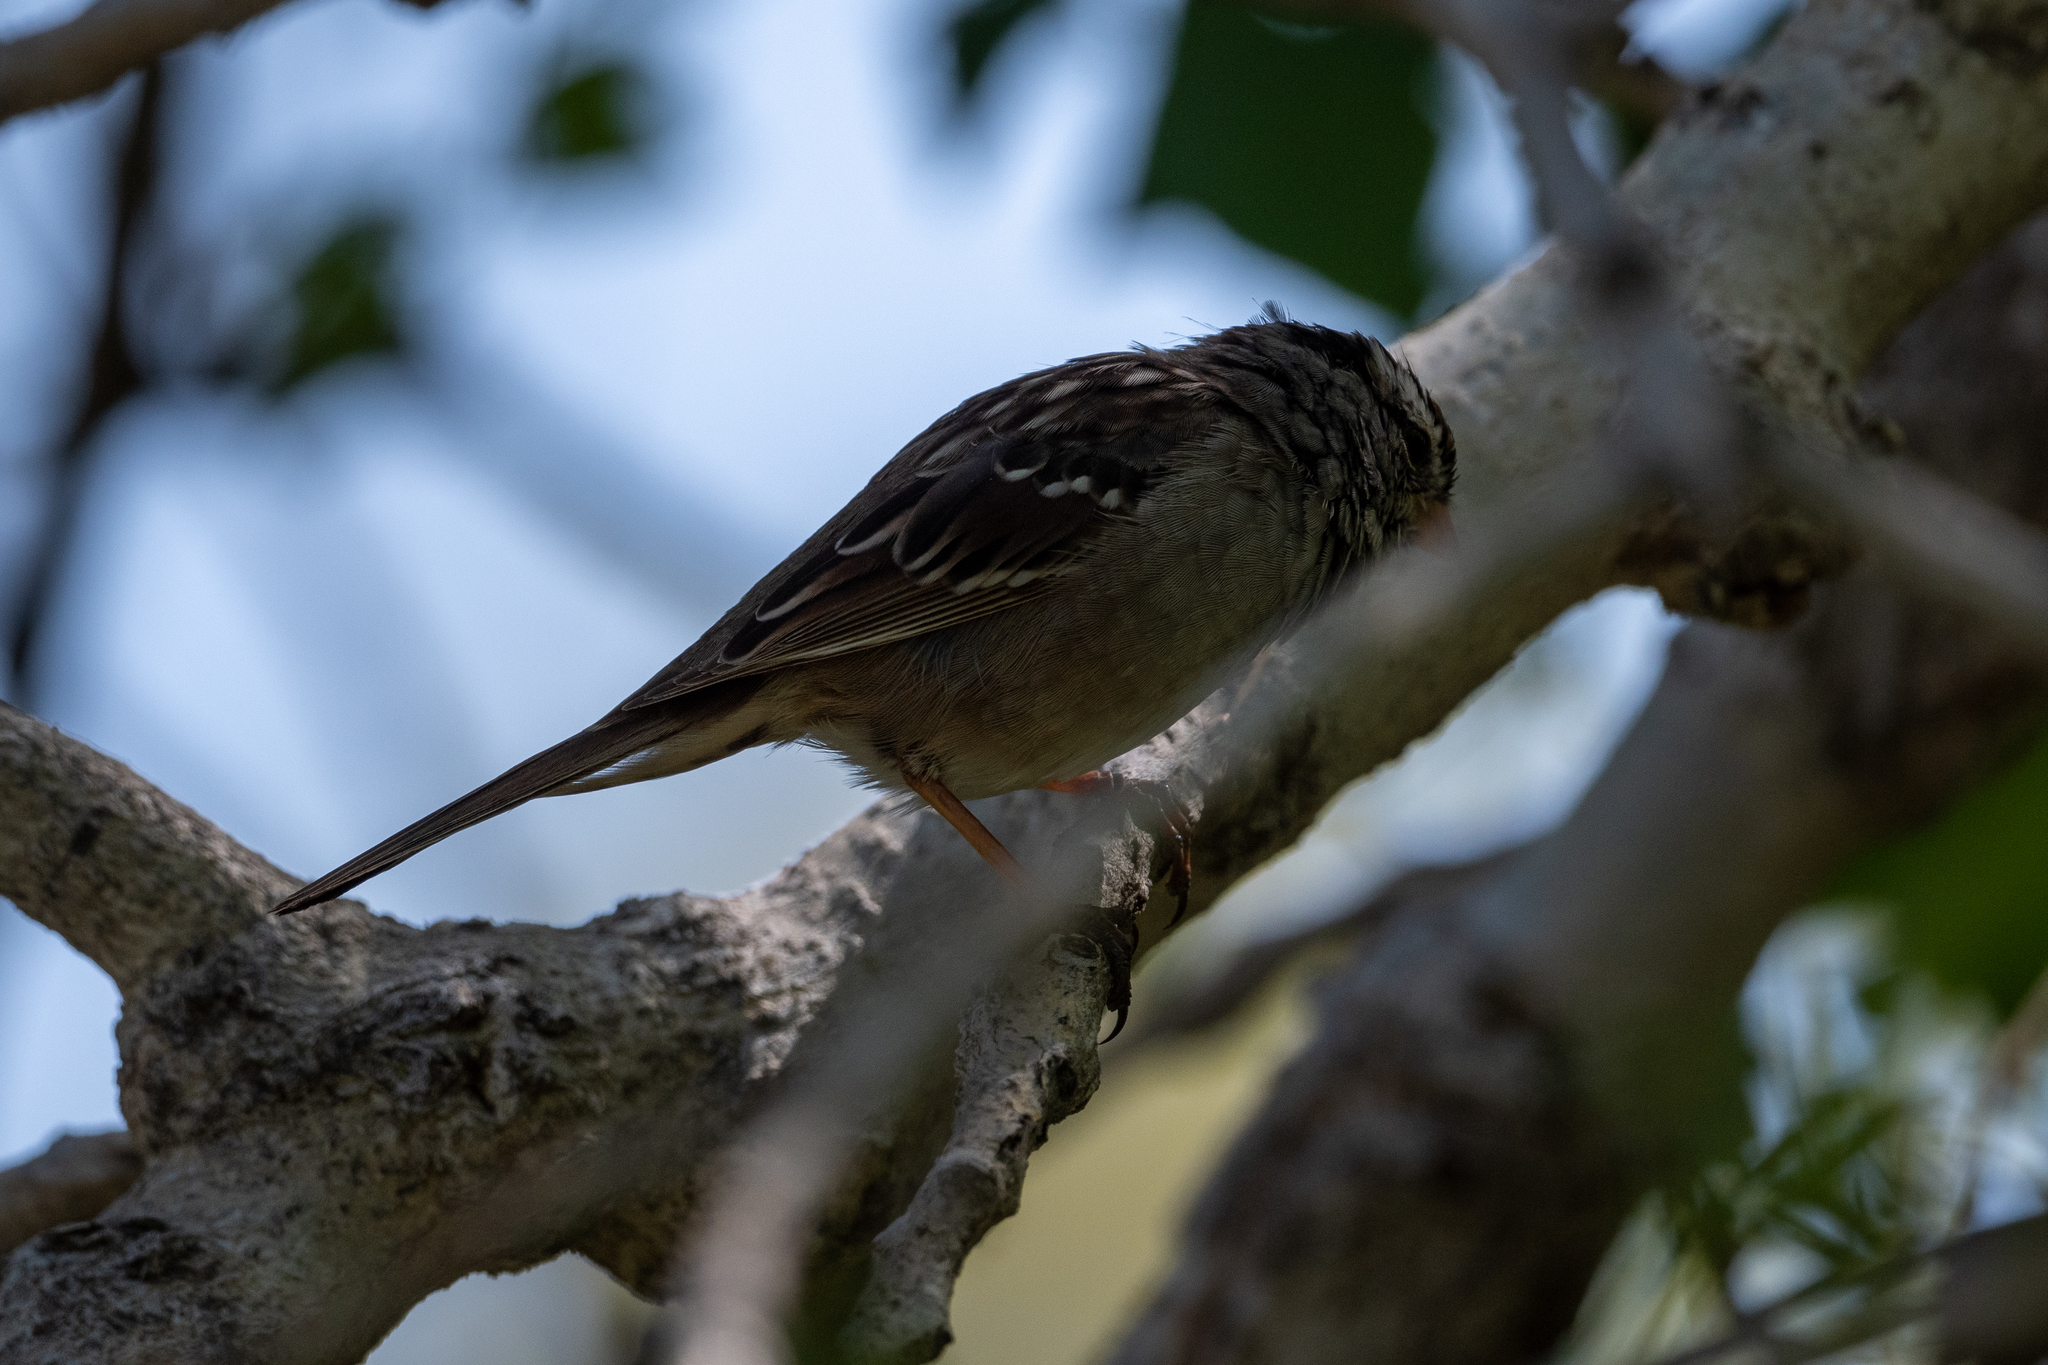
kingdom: Animalia
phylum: Chordata
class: Aves
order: Passeriformes
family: Passerellidae
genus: Zonotrichia
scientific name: Zonotrichia leucophrys
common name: White-crowned sparrow
